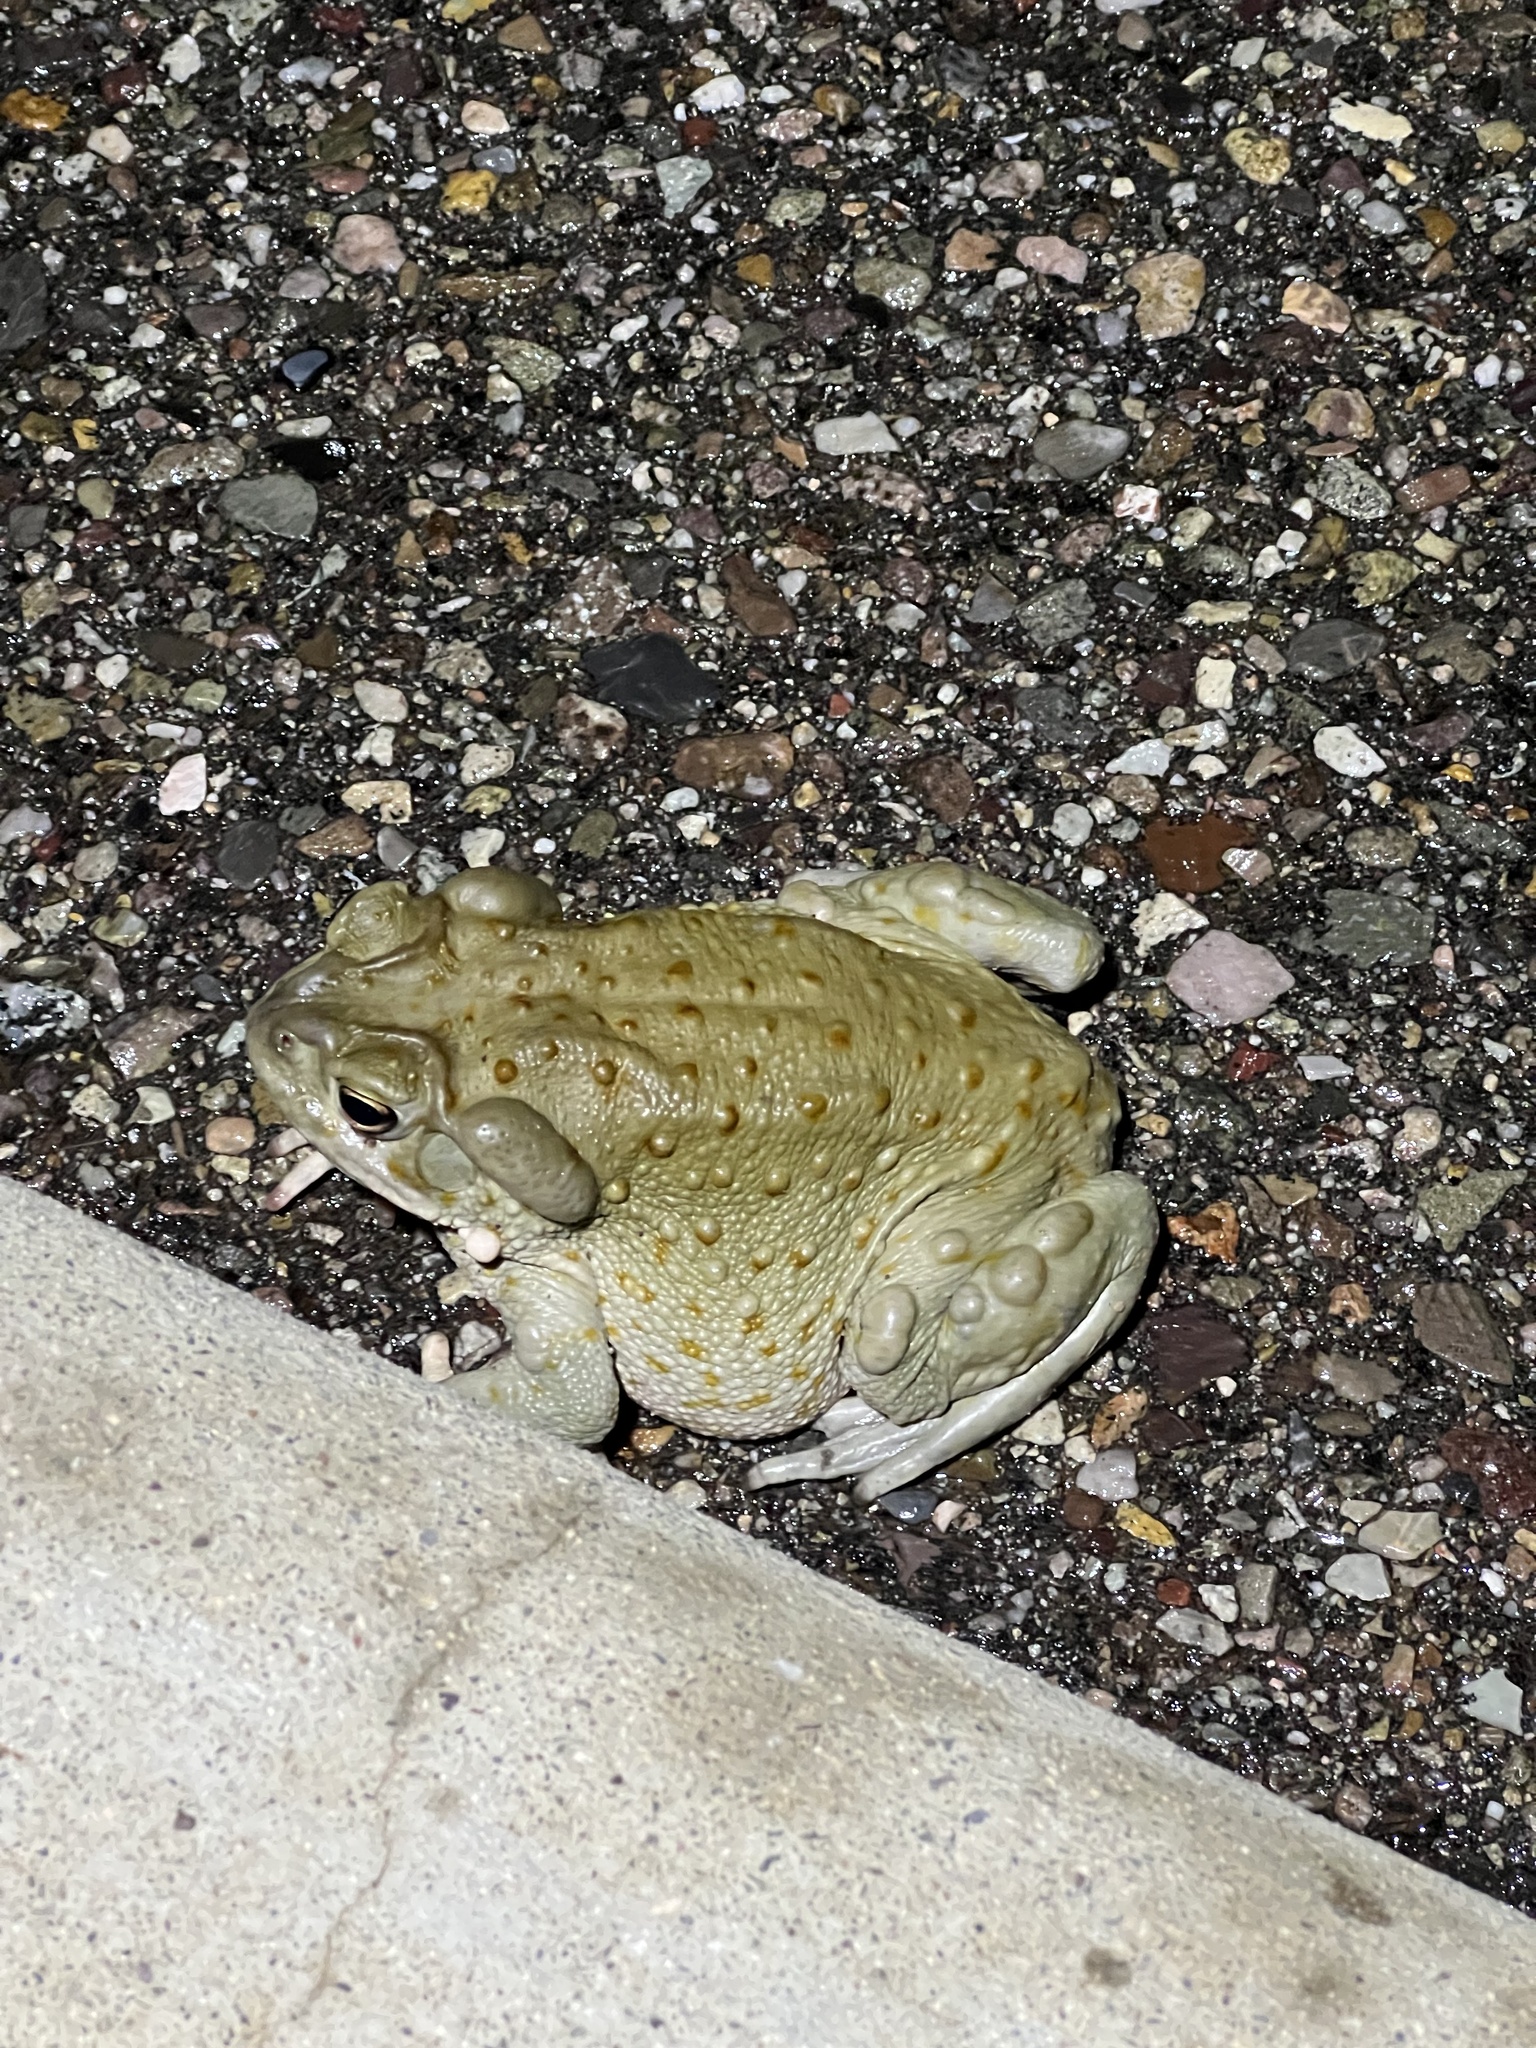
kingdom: Animalia
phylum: Chordata
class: Amphibia
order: Anura
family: Bufonidae
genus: Incilius
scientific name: Incilius alvarius
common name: Sonoran desert toad
